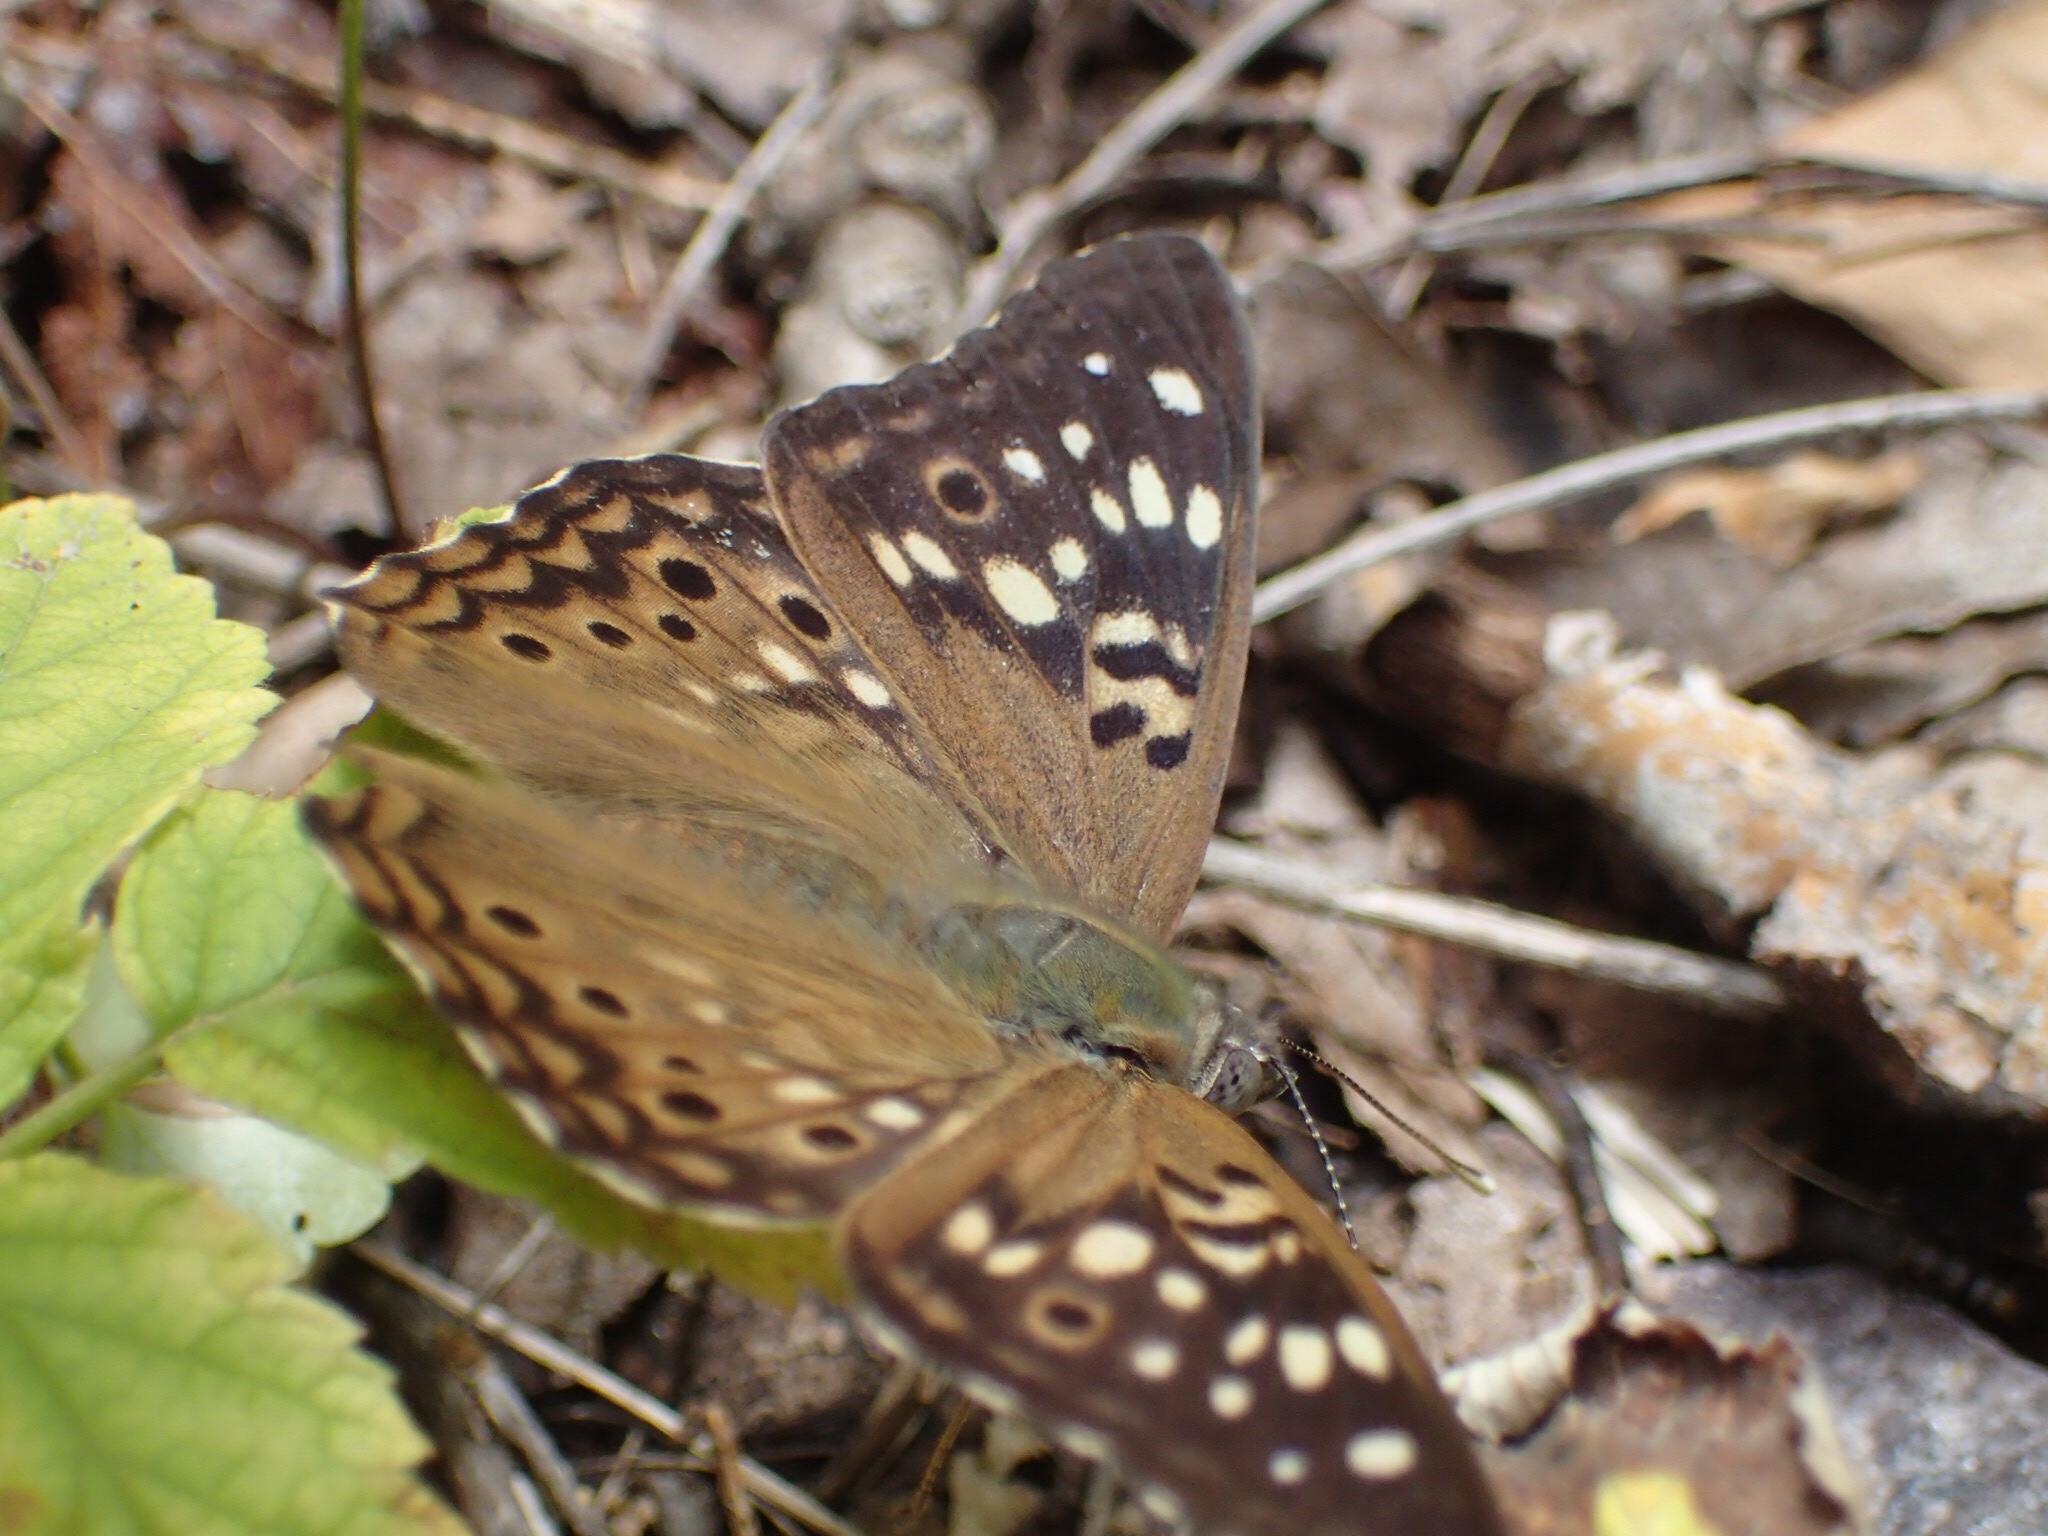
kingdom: Animalia
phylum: Arthropoda
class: Insecta
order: Lepidoptera
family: Nymphalidae
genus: Asterocampa
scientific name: Asterocampa celtis
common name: Hackberry emperor
